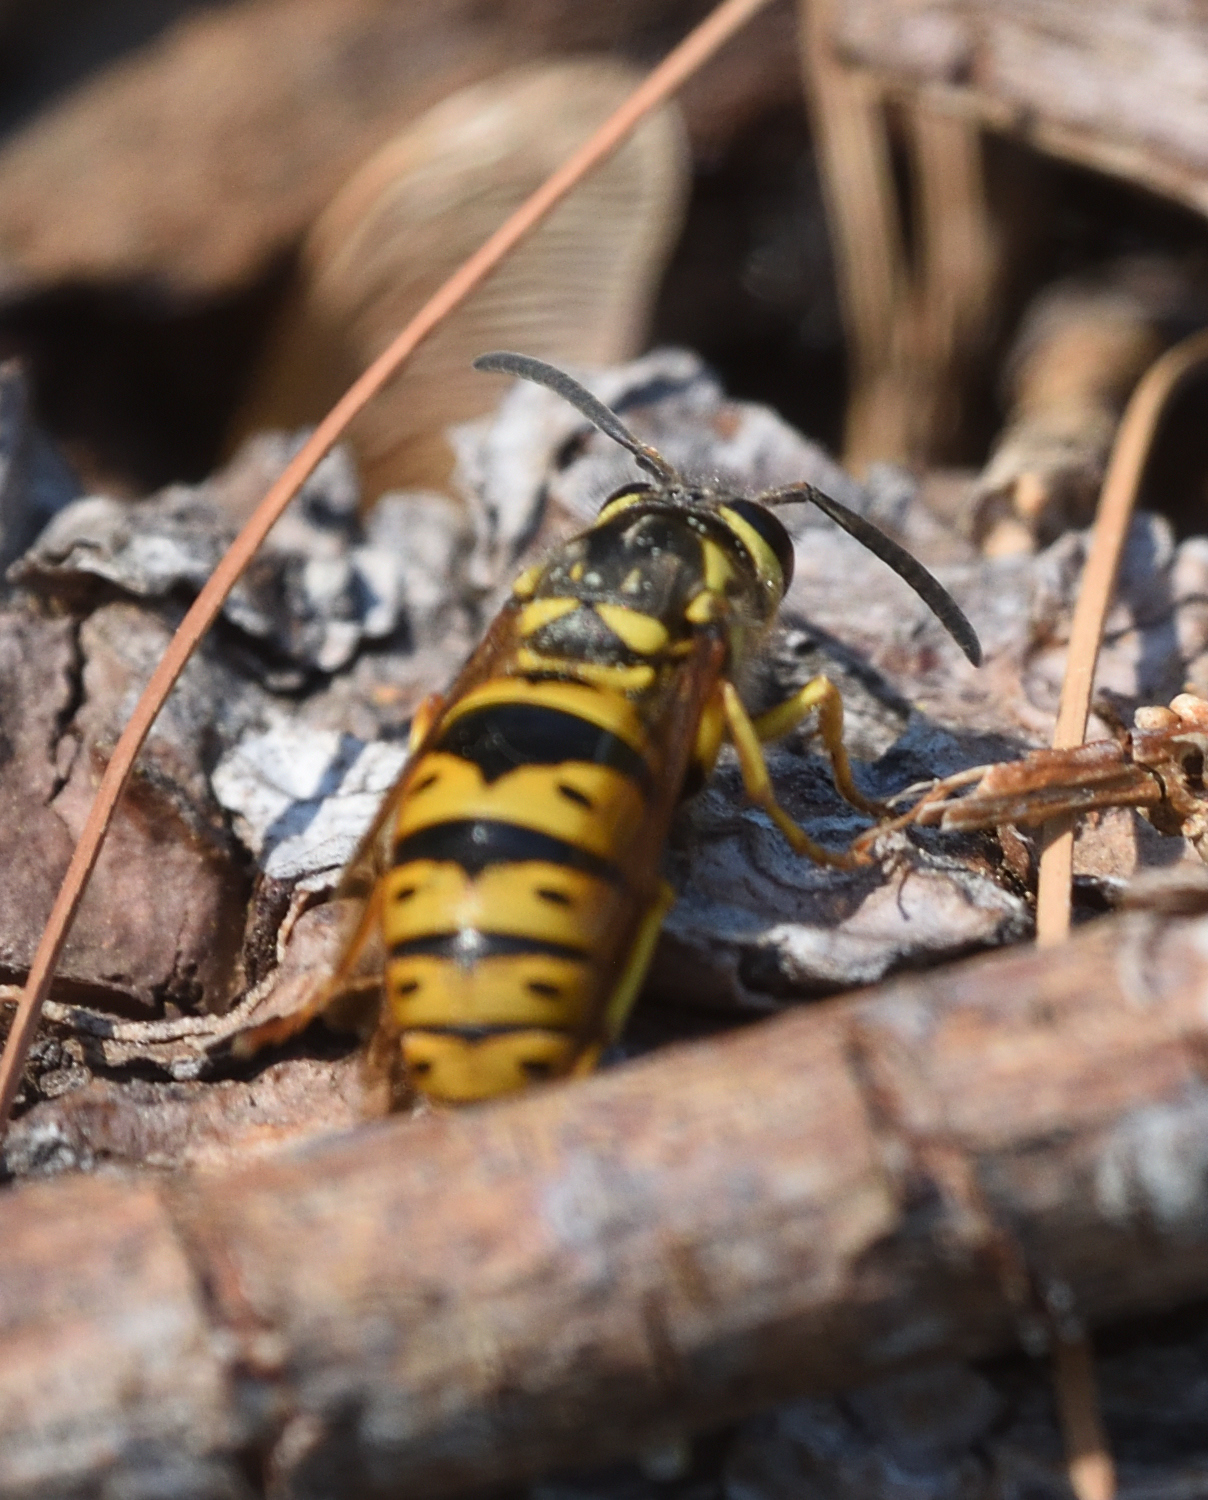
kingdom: Animalia
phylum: Arthropoda
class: Insecta
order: Hymenoptera
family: Vespidae
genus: Vespula
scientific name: Vespula maculifrons
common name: Eastern yellowjacket
